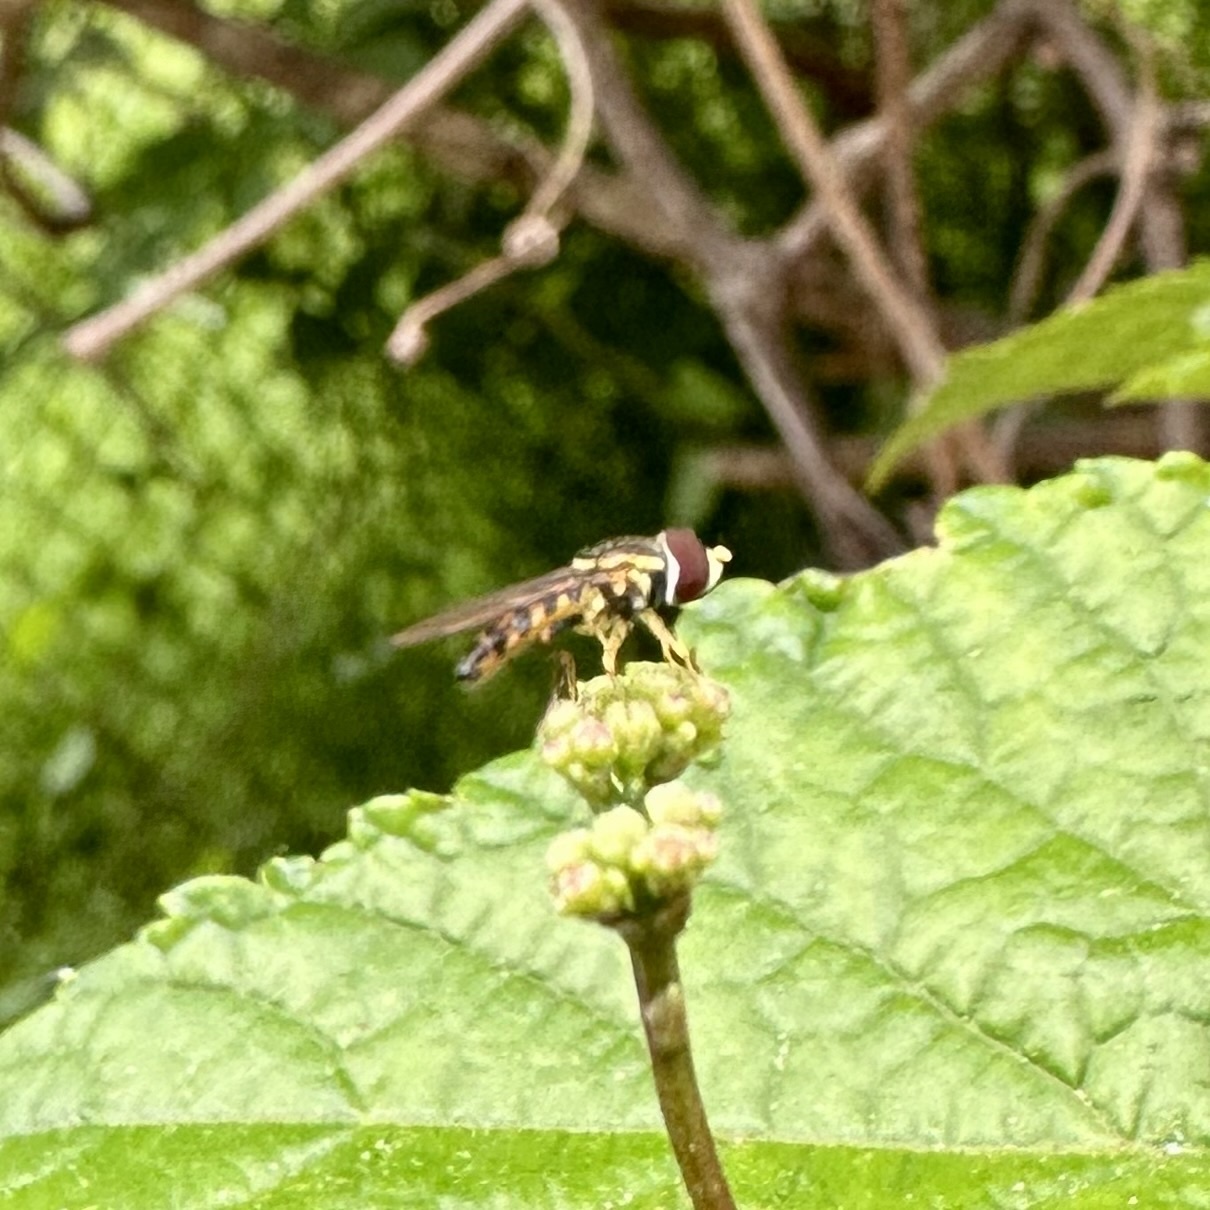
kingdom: Animalia
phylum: Arthropoda
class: Insecta
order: Diptera
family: Syrphidae
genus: Toxomerus
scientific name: Toxomerus geminatus
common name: Eastern calligrapher
